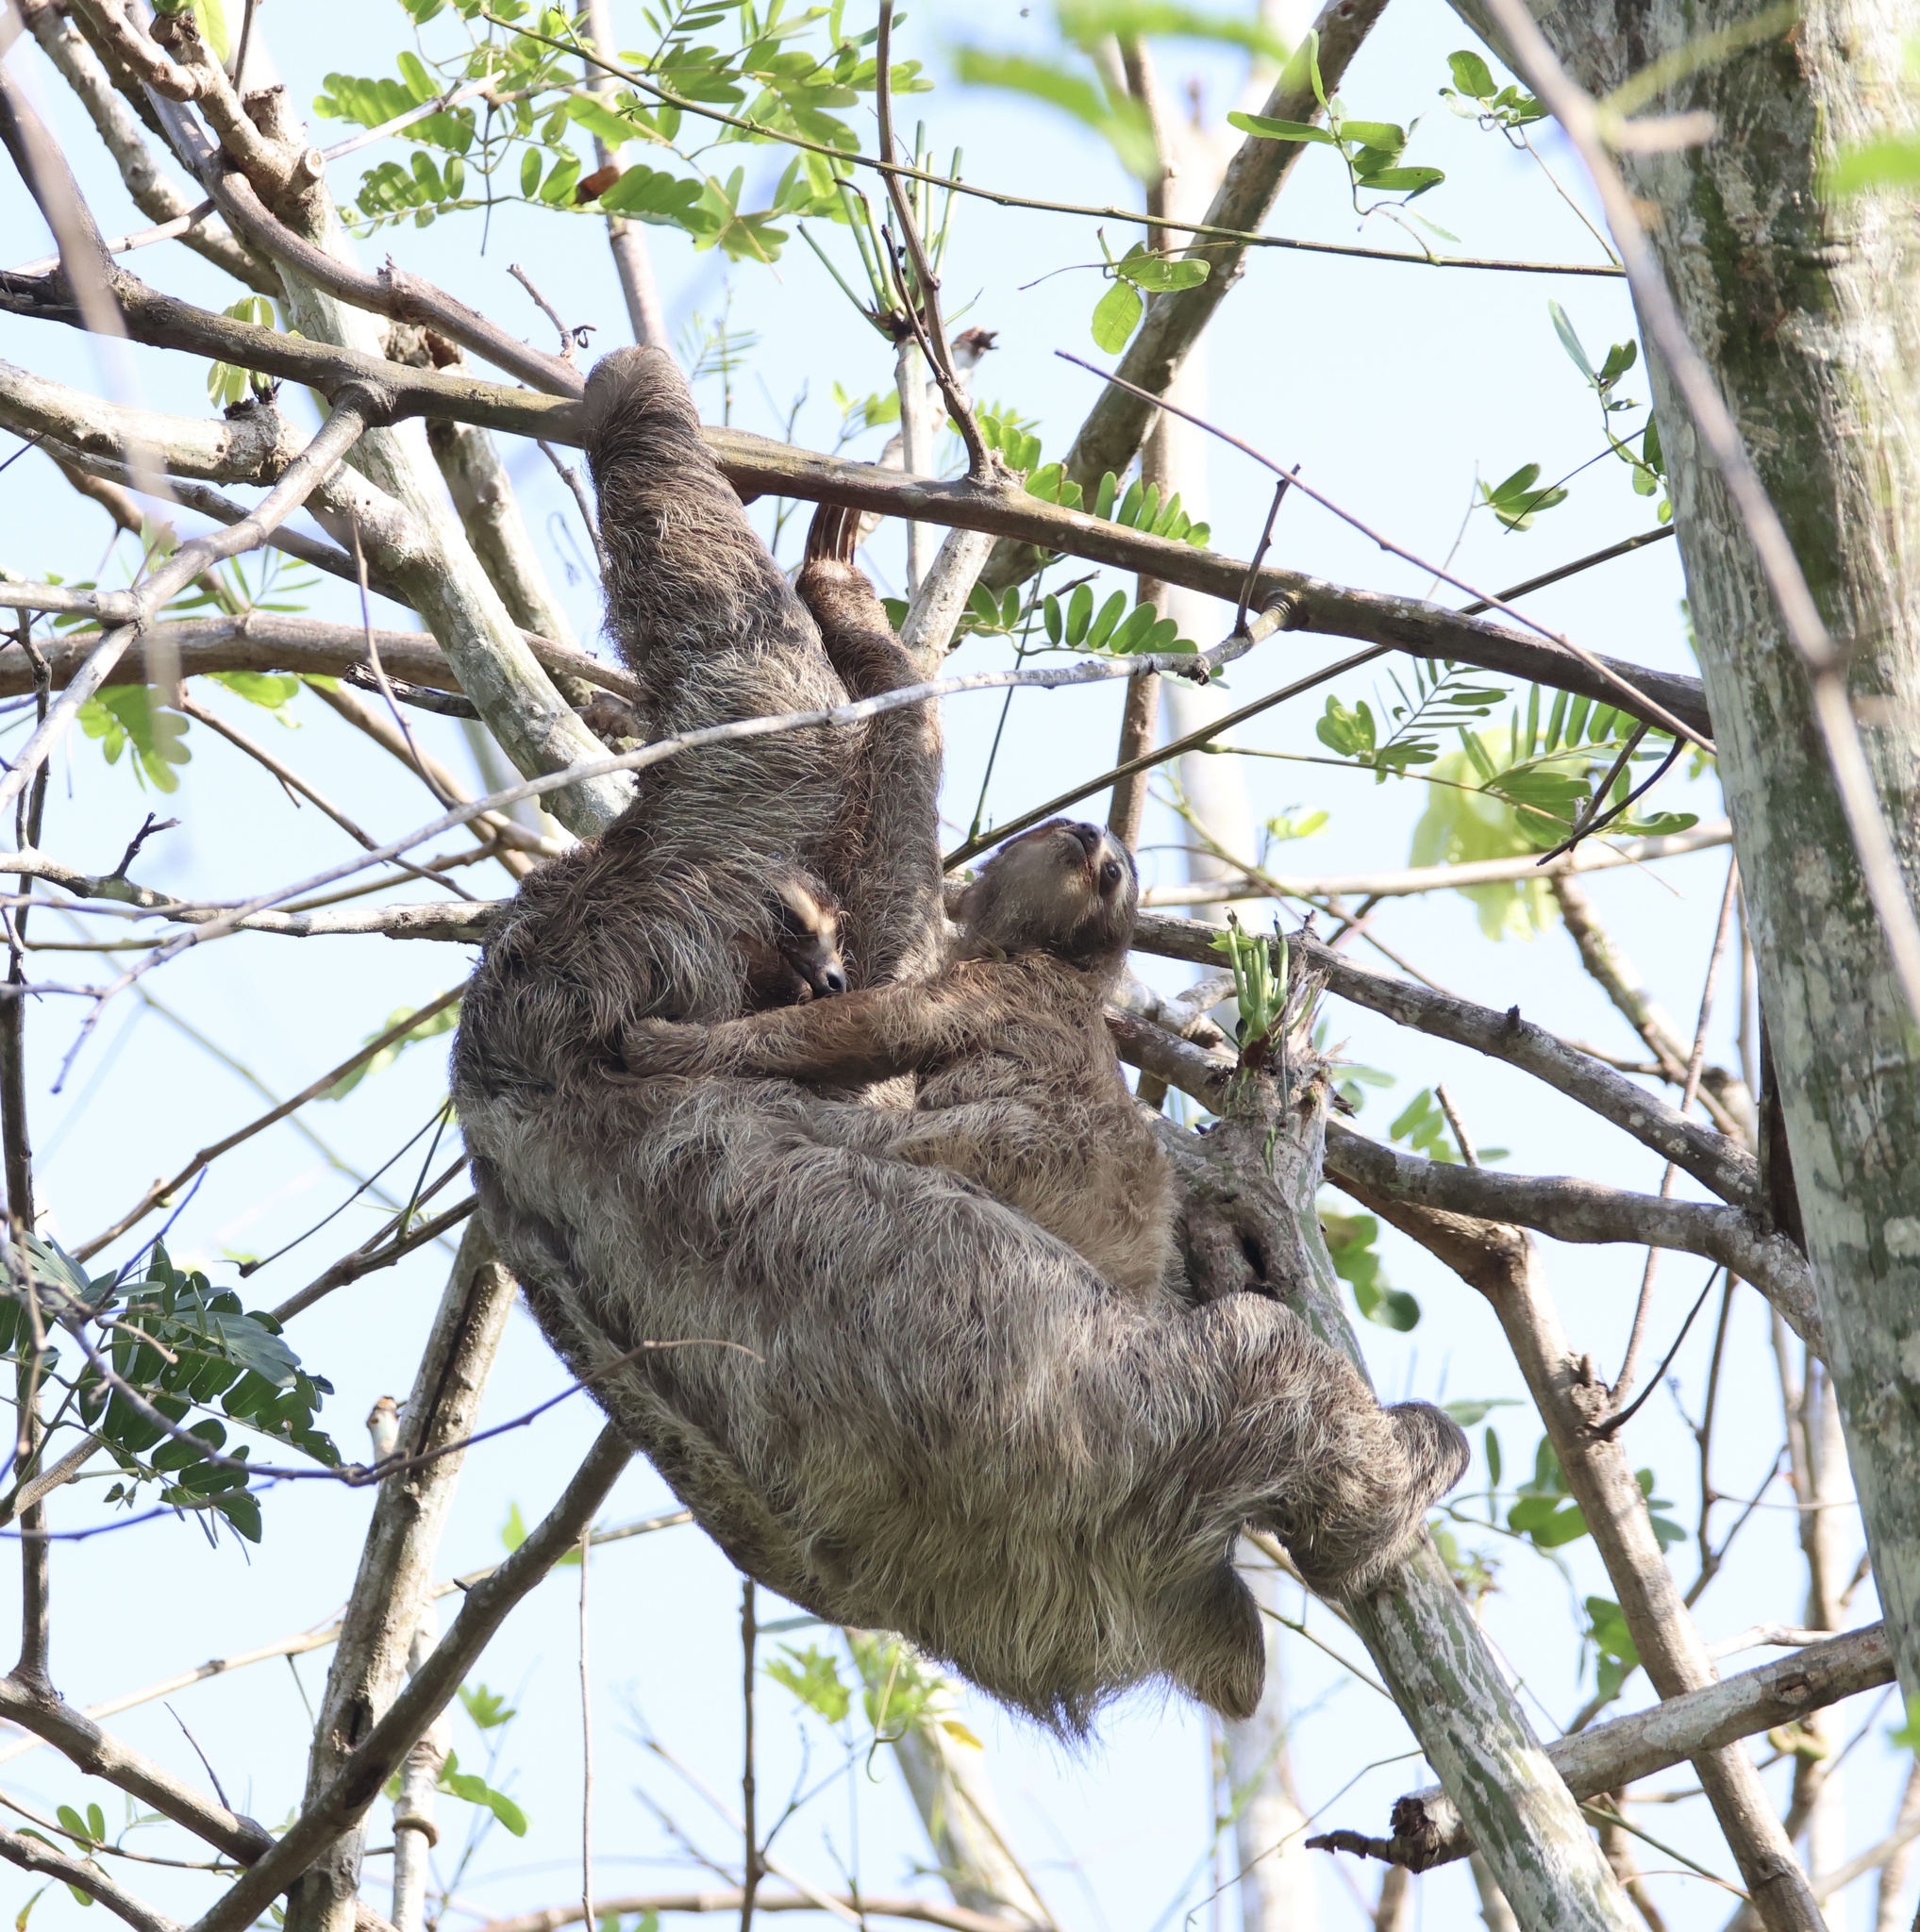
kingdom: Animalia
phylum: Chordata
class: Mammalia
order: Pilosa
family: Bradypodidae
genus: Bradypus
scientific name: Bradypus variegatus
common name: Brown-throated three-toed sloth
